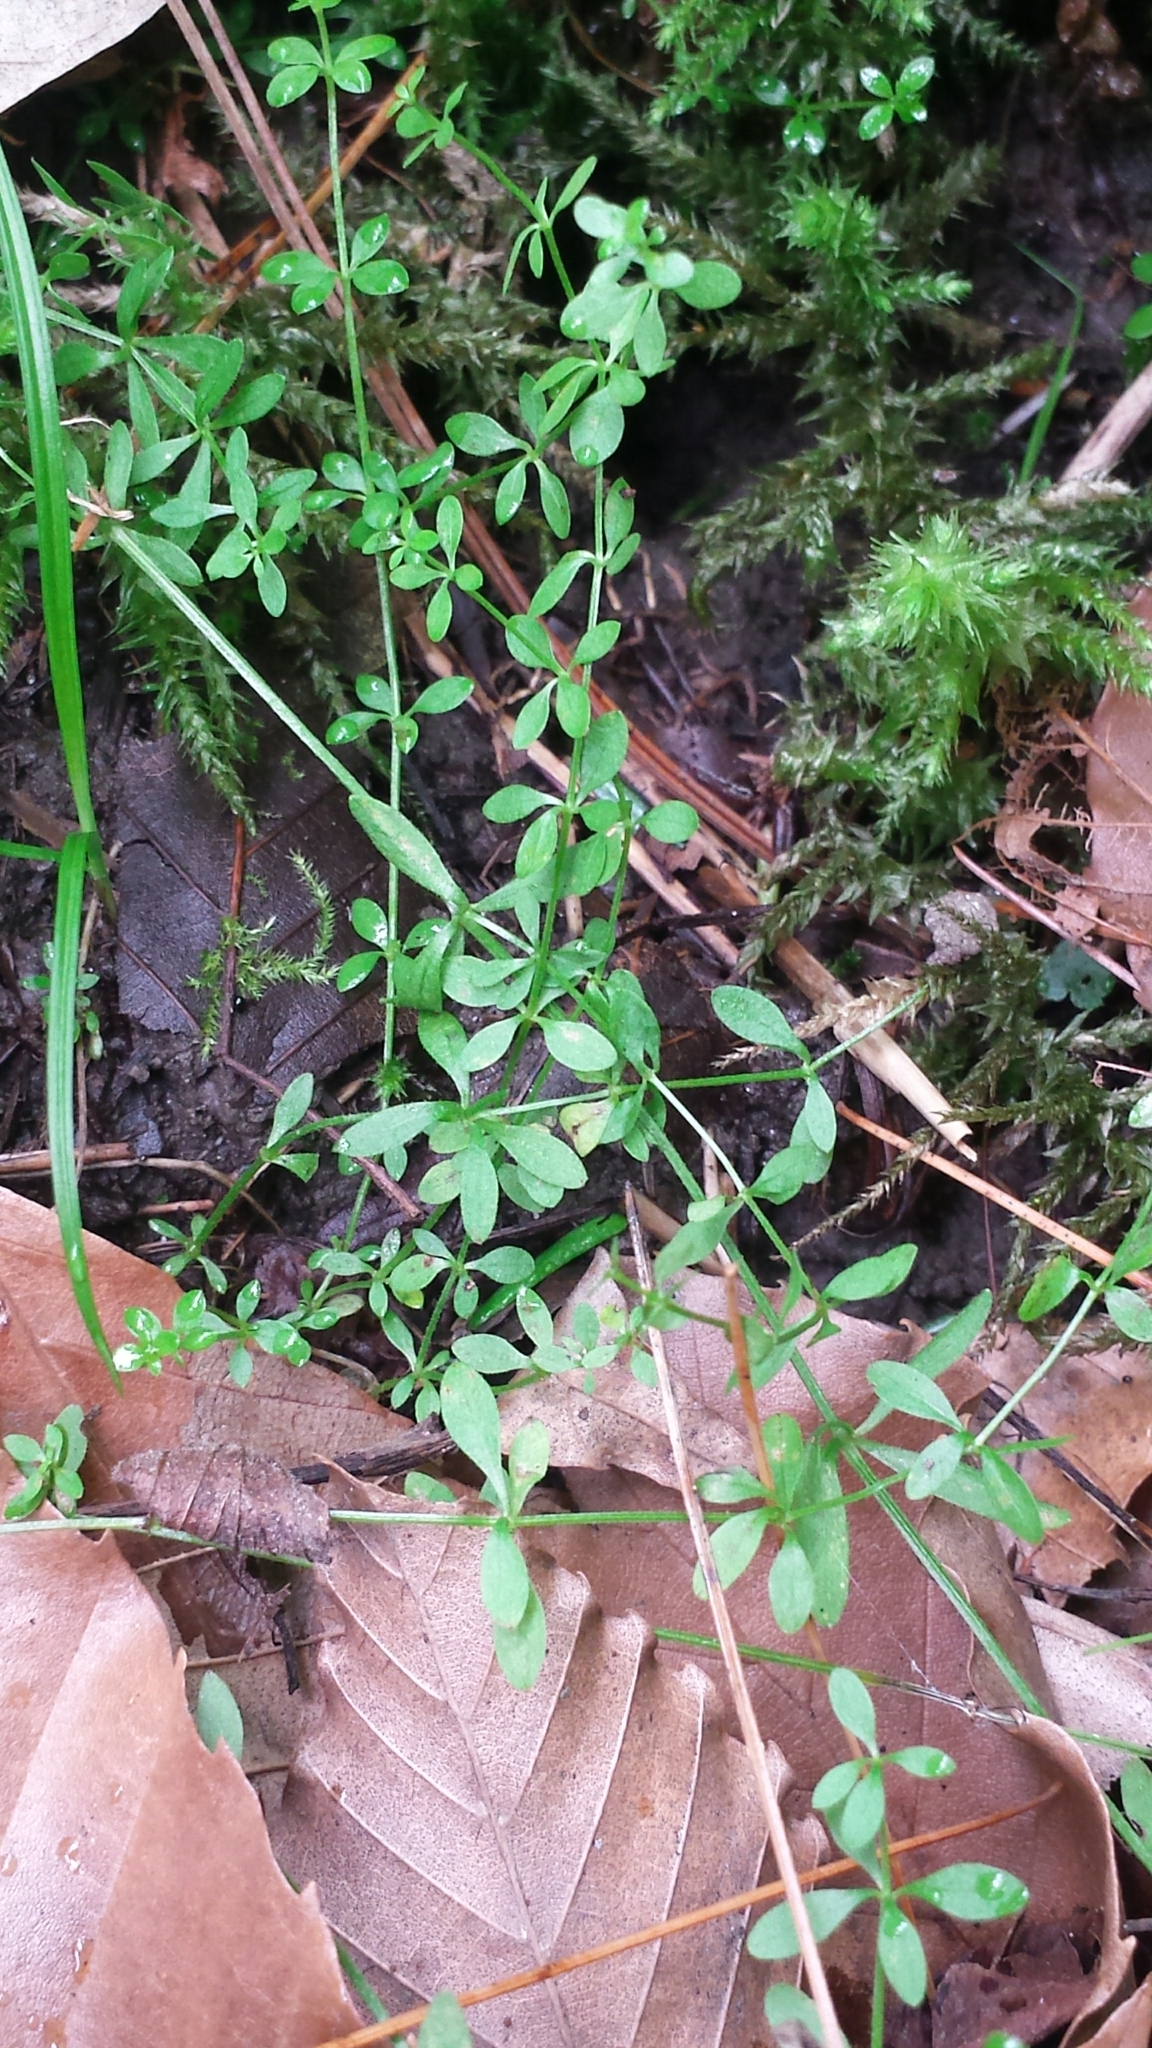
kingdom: Plantae
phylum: Tracheophyta
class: Magnoliopsida
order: Gentianales
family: Rubiaceae
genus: Galium
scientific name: Galium palustre
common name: Common marsh-bedstraw
